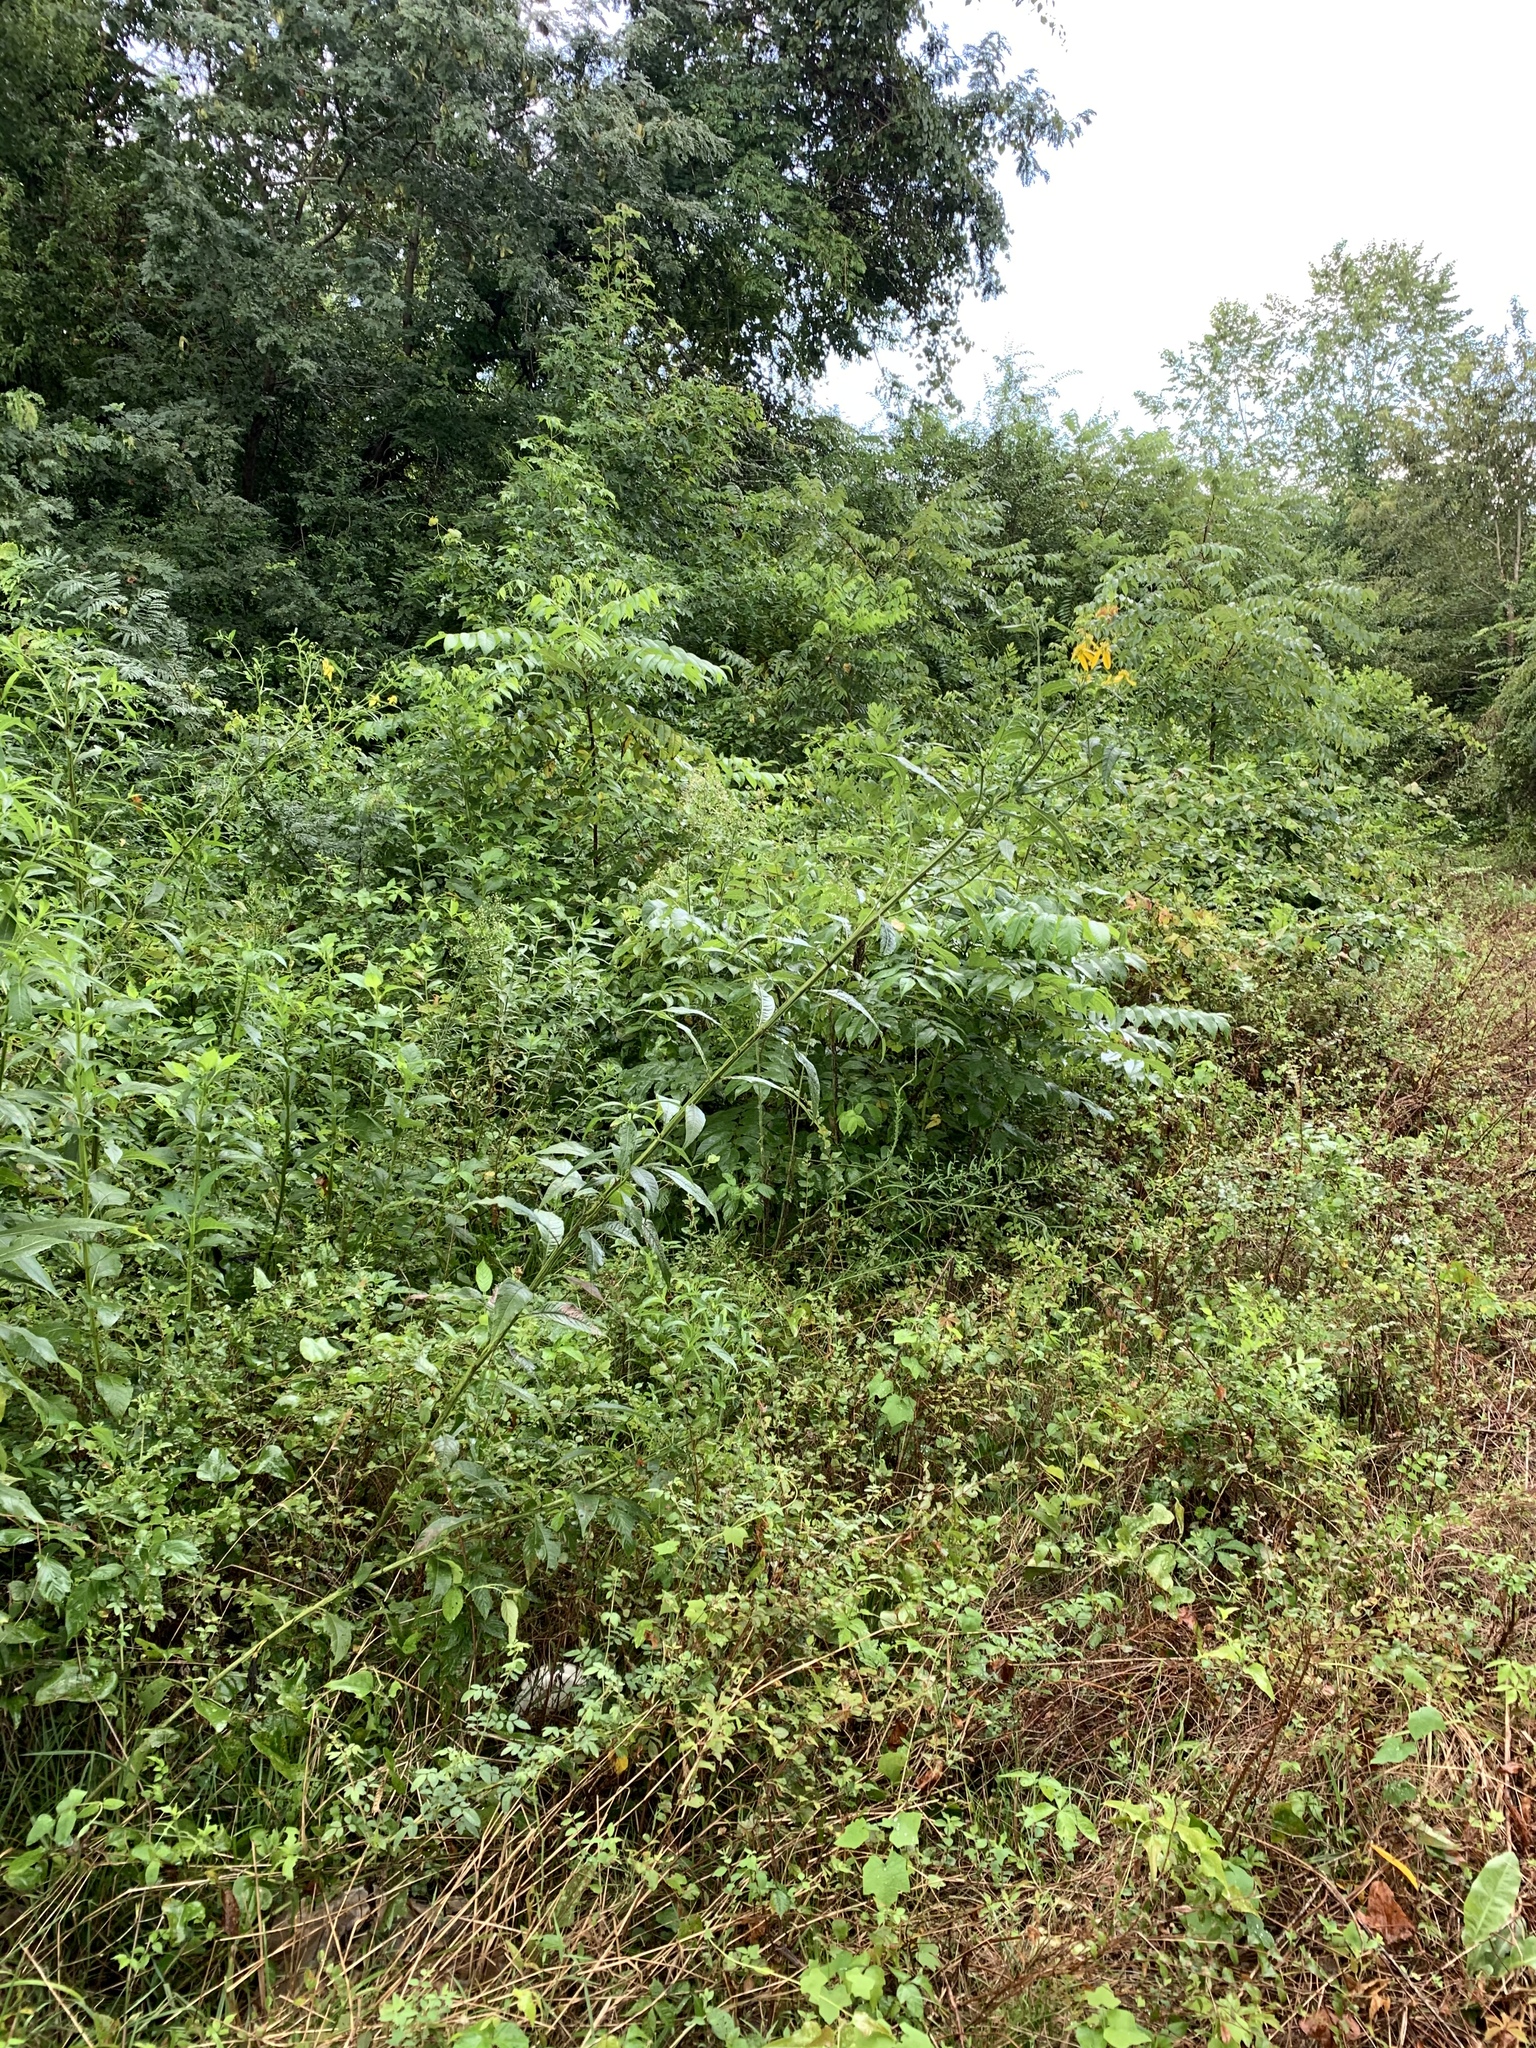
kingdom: Plantae
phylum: Tracheophyta
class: Magnoliopsida
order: Asterales
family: Asteraceae
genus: Verbesina
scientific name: Verbesina alternifolia
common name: Wingstem
